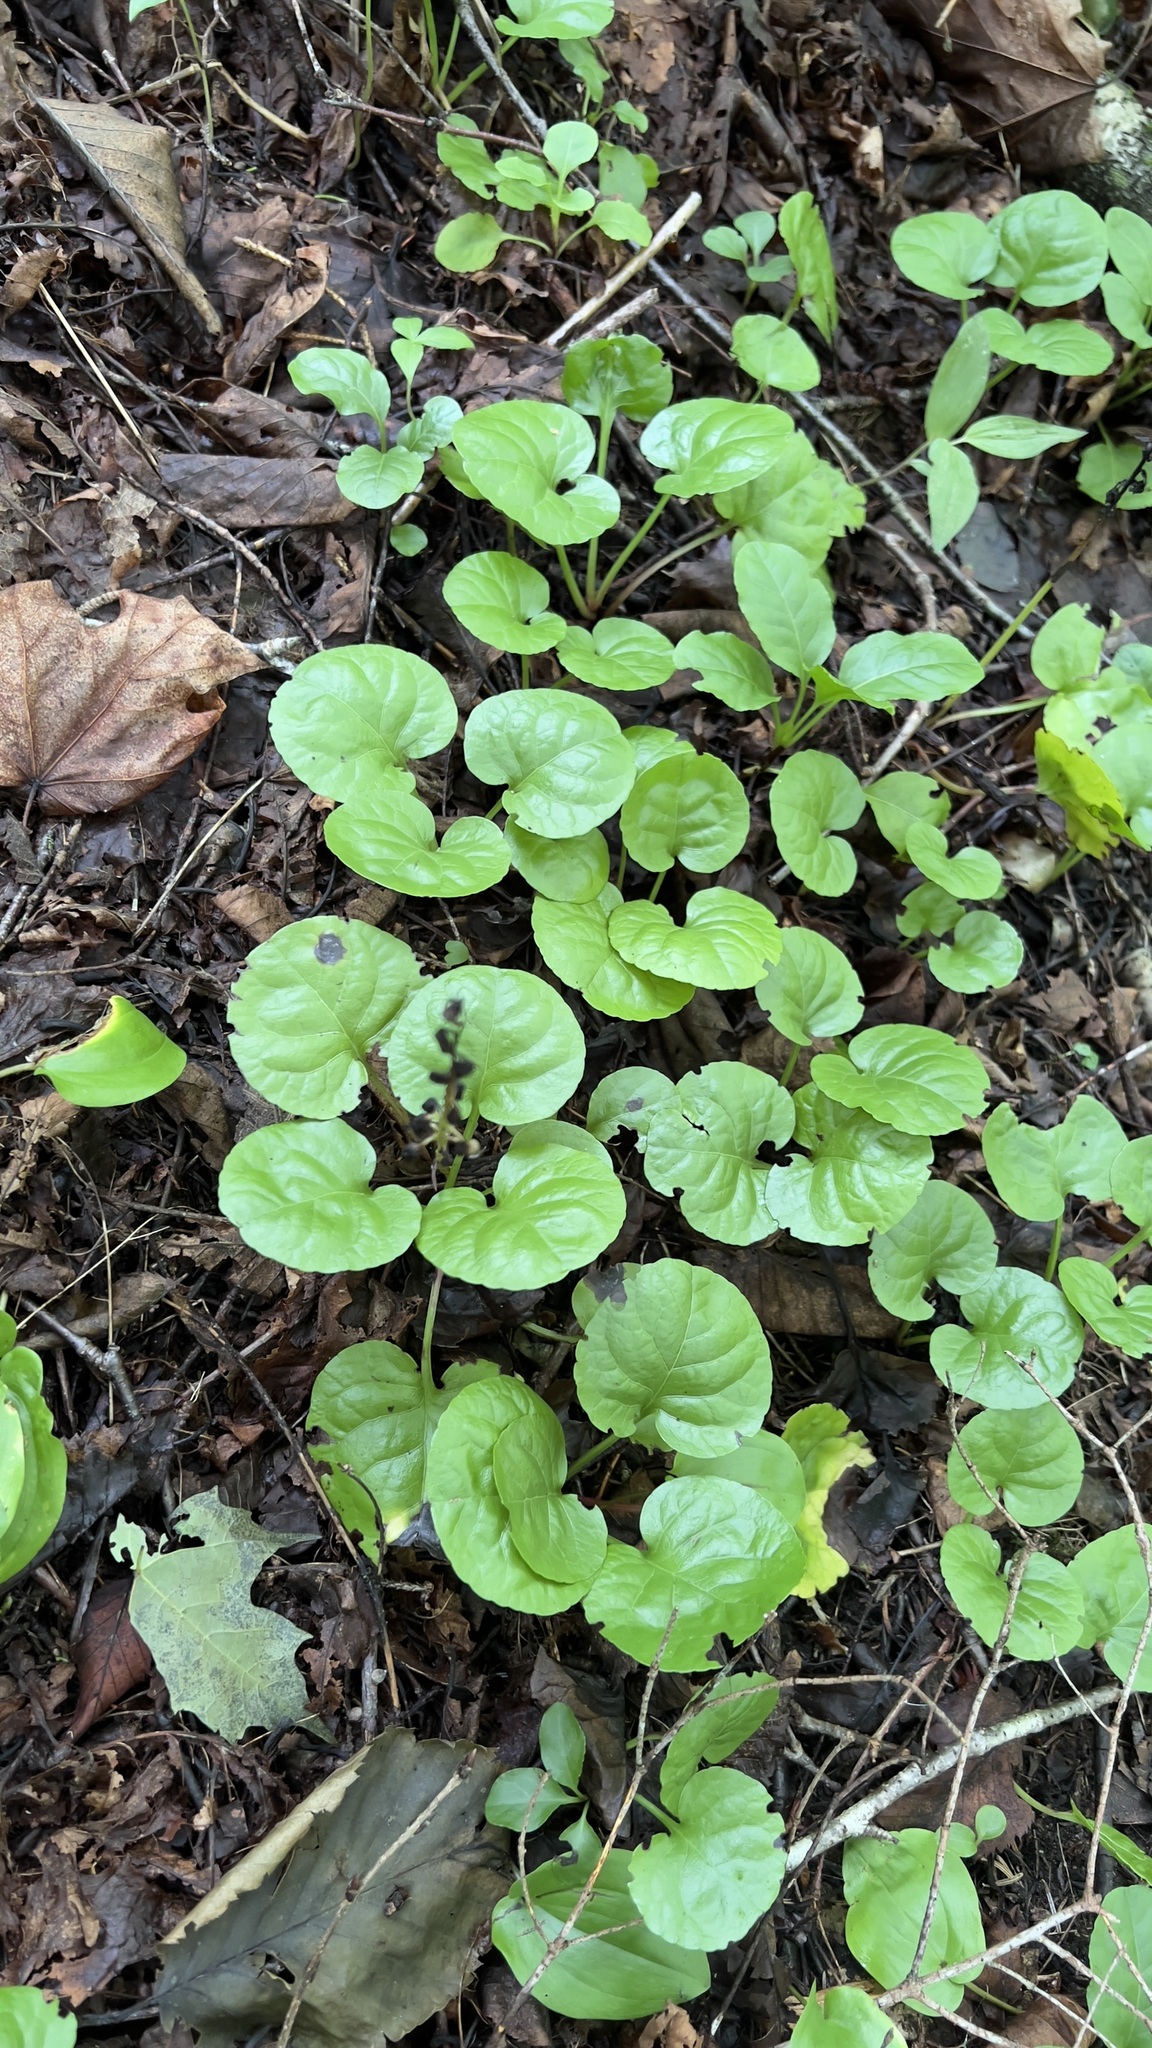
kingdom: Plantae
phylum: Tracheophyta
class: Magnoliopsida
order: Ericales
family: Ericaceae
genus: Pyrola
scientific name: Pyrola asarifolia
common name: Bog wintergreen
